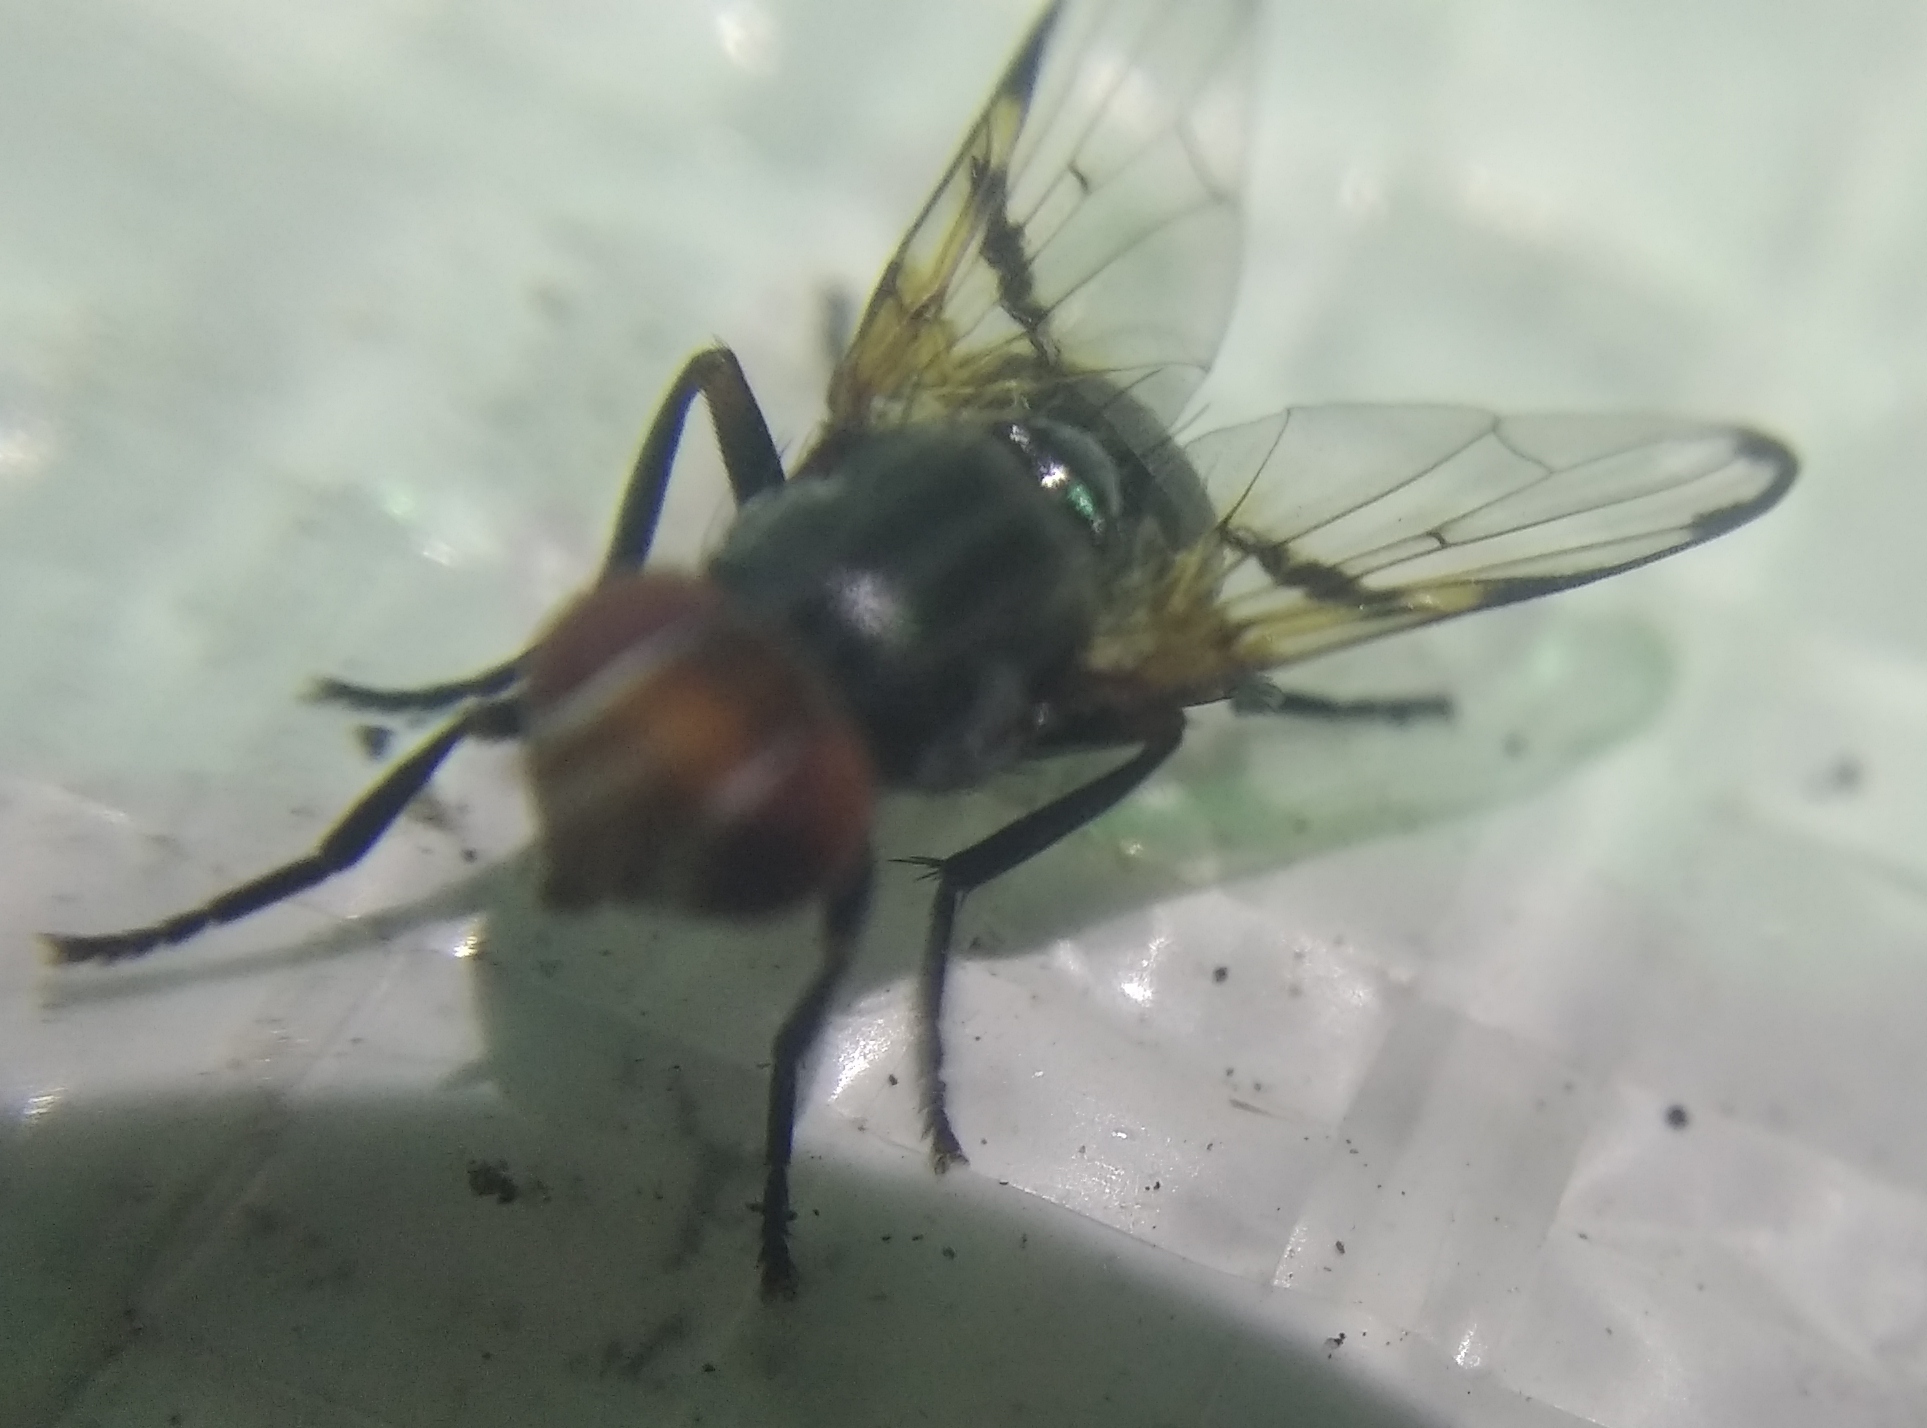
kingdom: Animalia
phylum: Arthropoda
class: Insecta
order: Diptera
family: Ulidiidae
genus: Ceroxys
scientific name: Ceroxys munda
